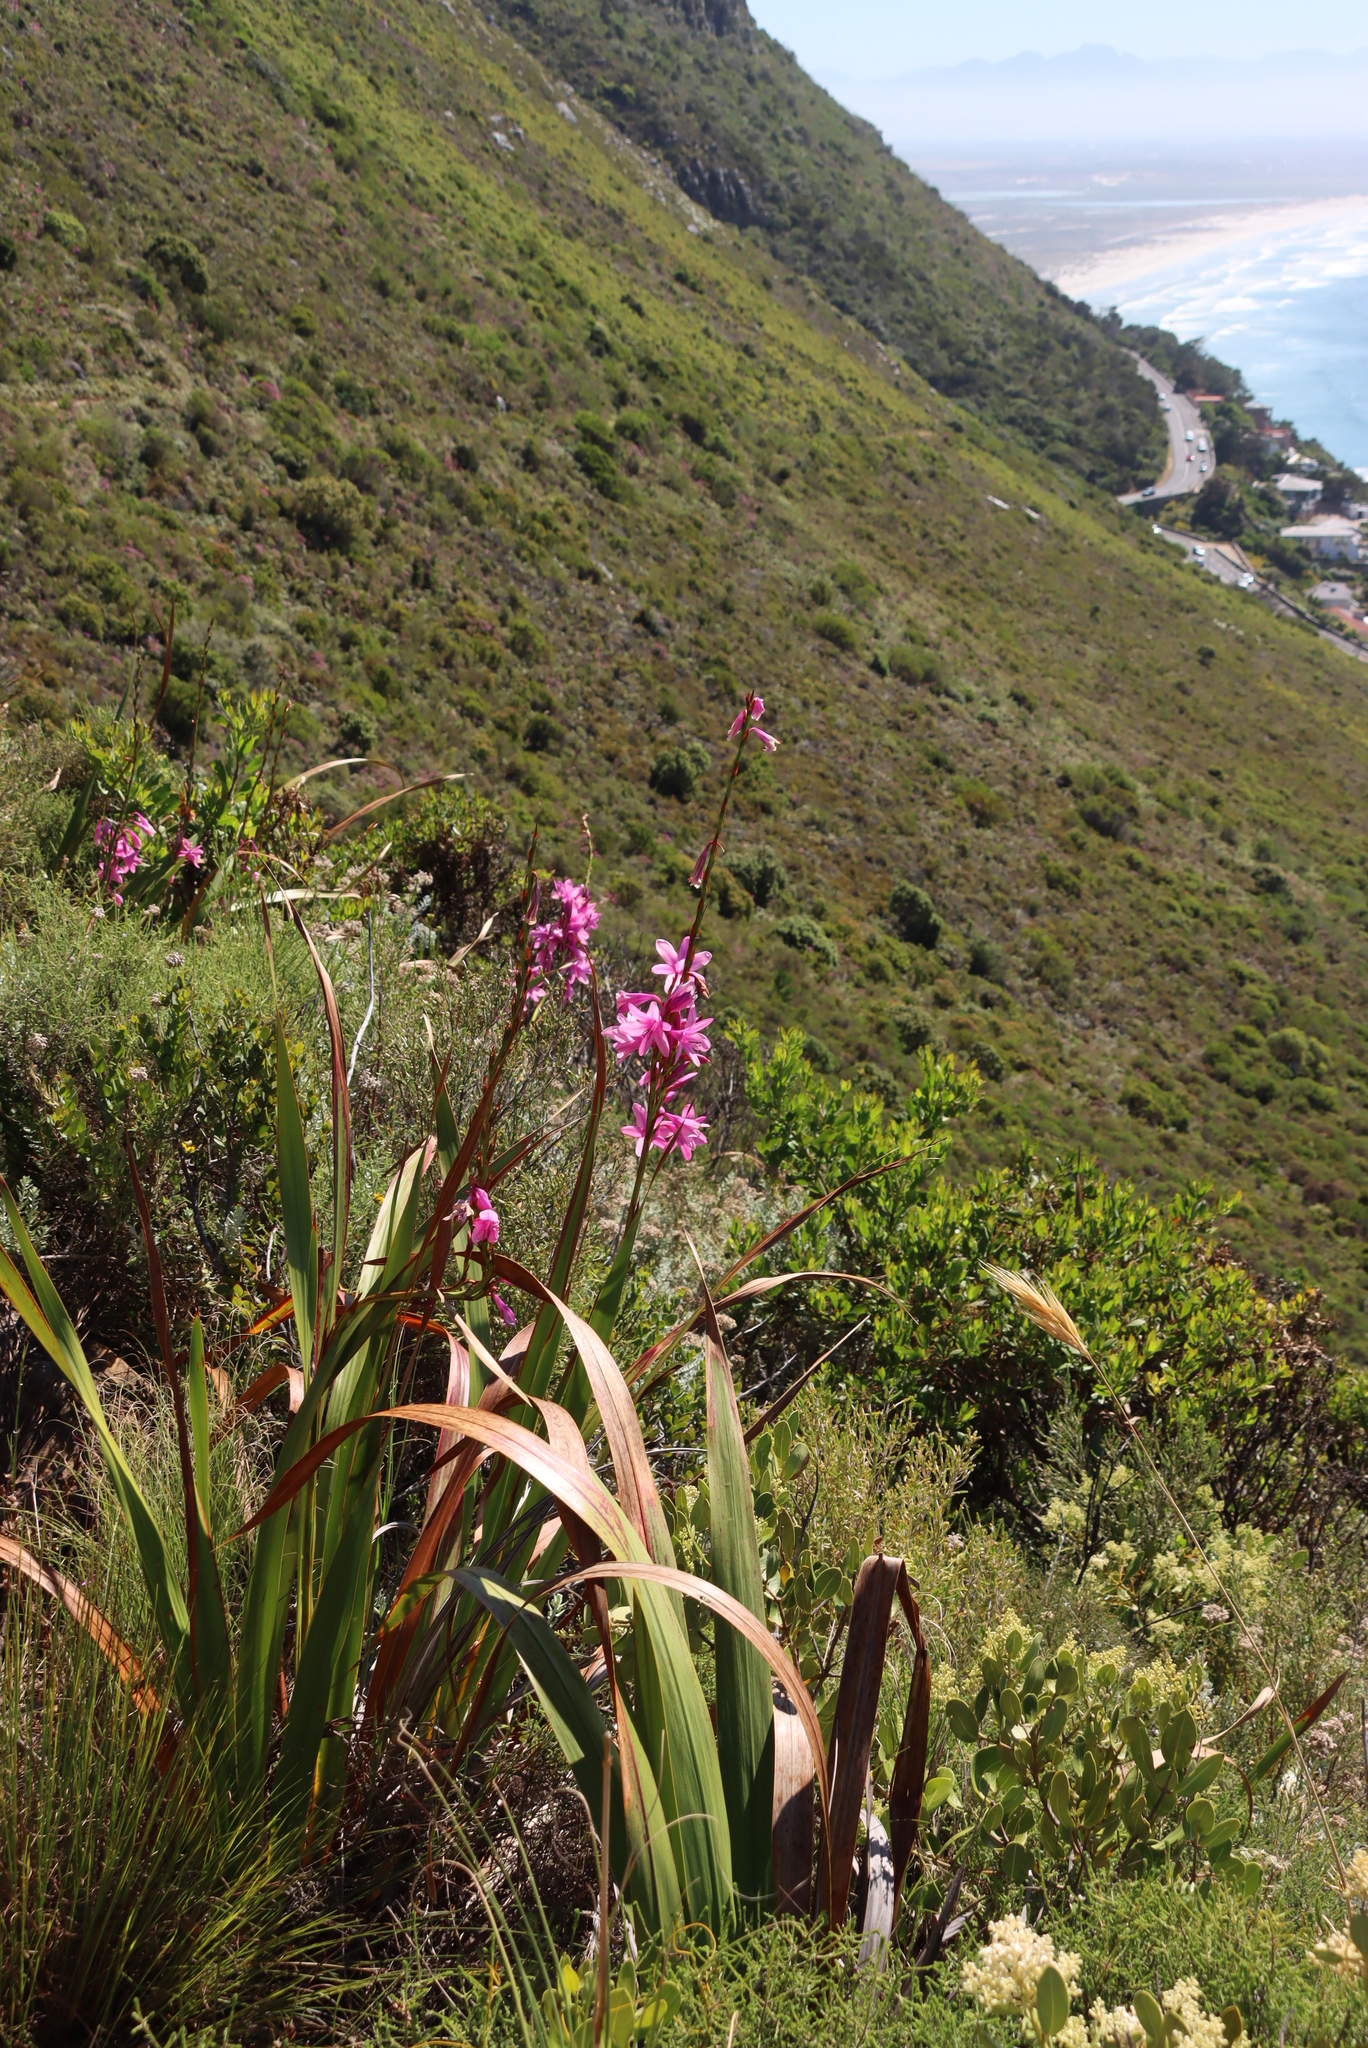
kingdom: Plantae
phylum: Tracheophyta
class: Liliopsida
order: Asparagales
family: Iridaceae
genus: Watsonia
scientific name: Watsonia borbonica
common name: Bugle-lily
